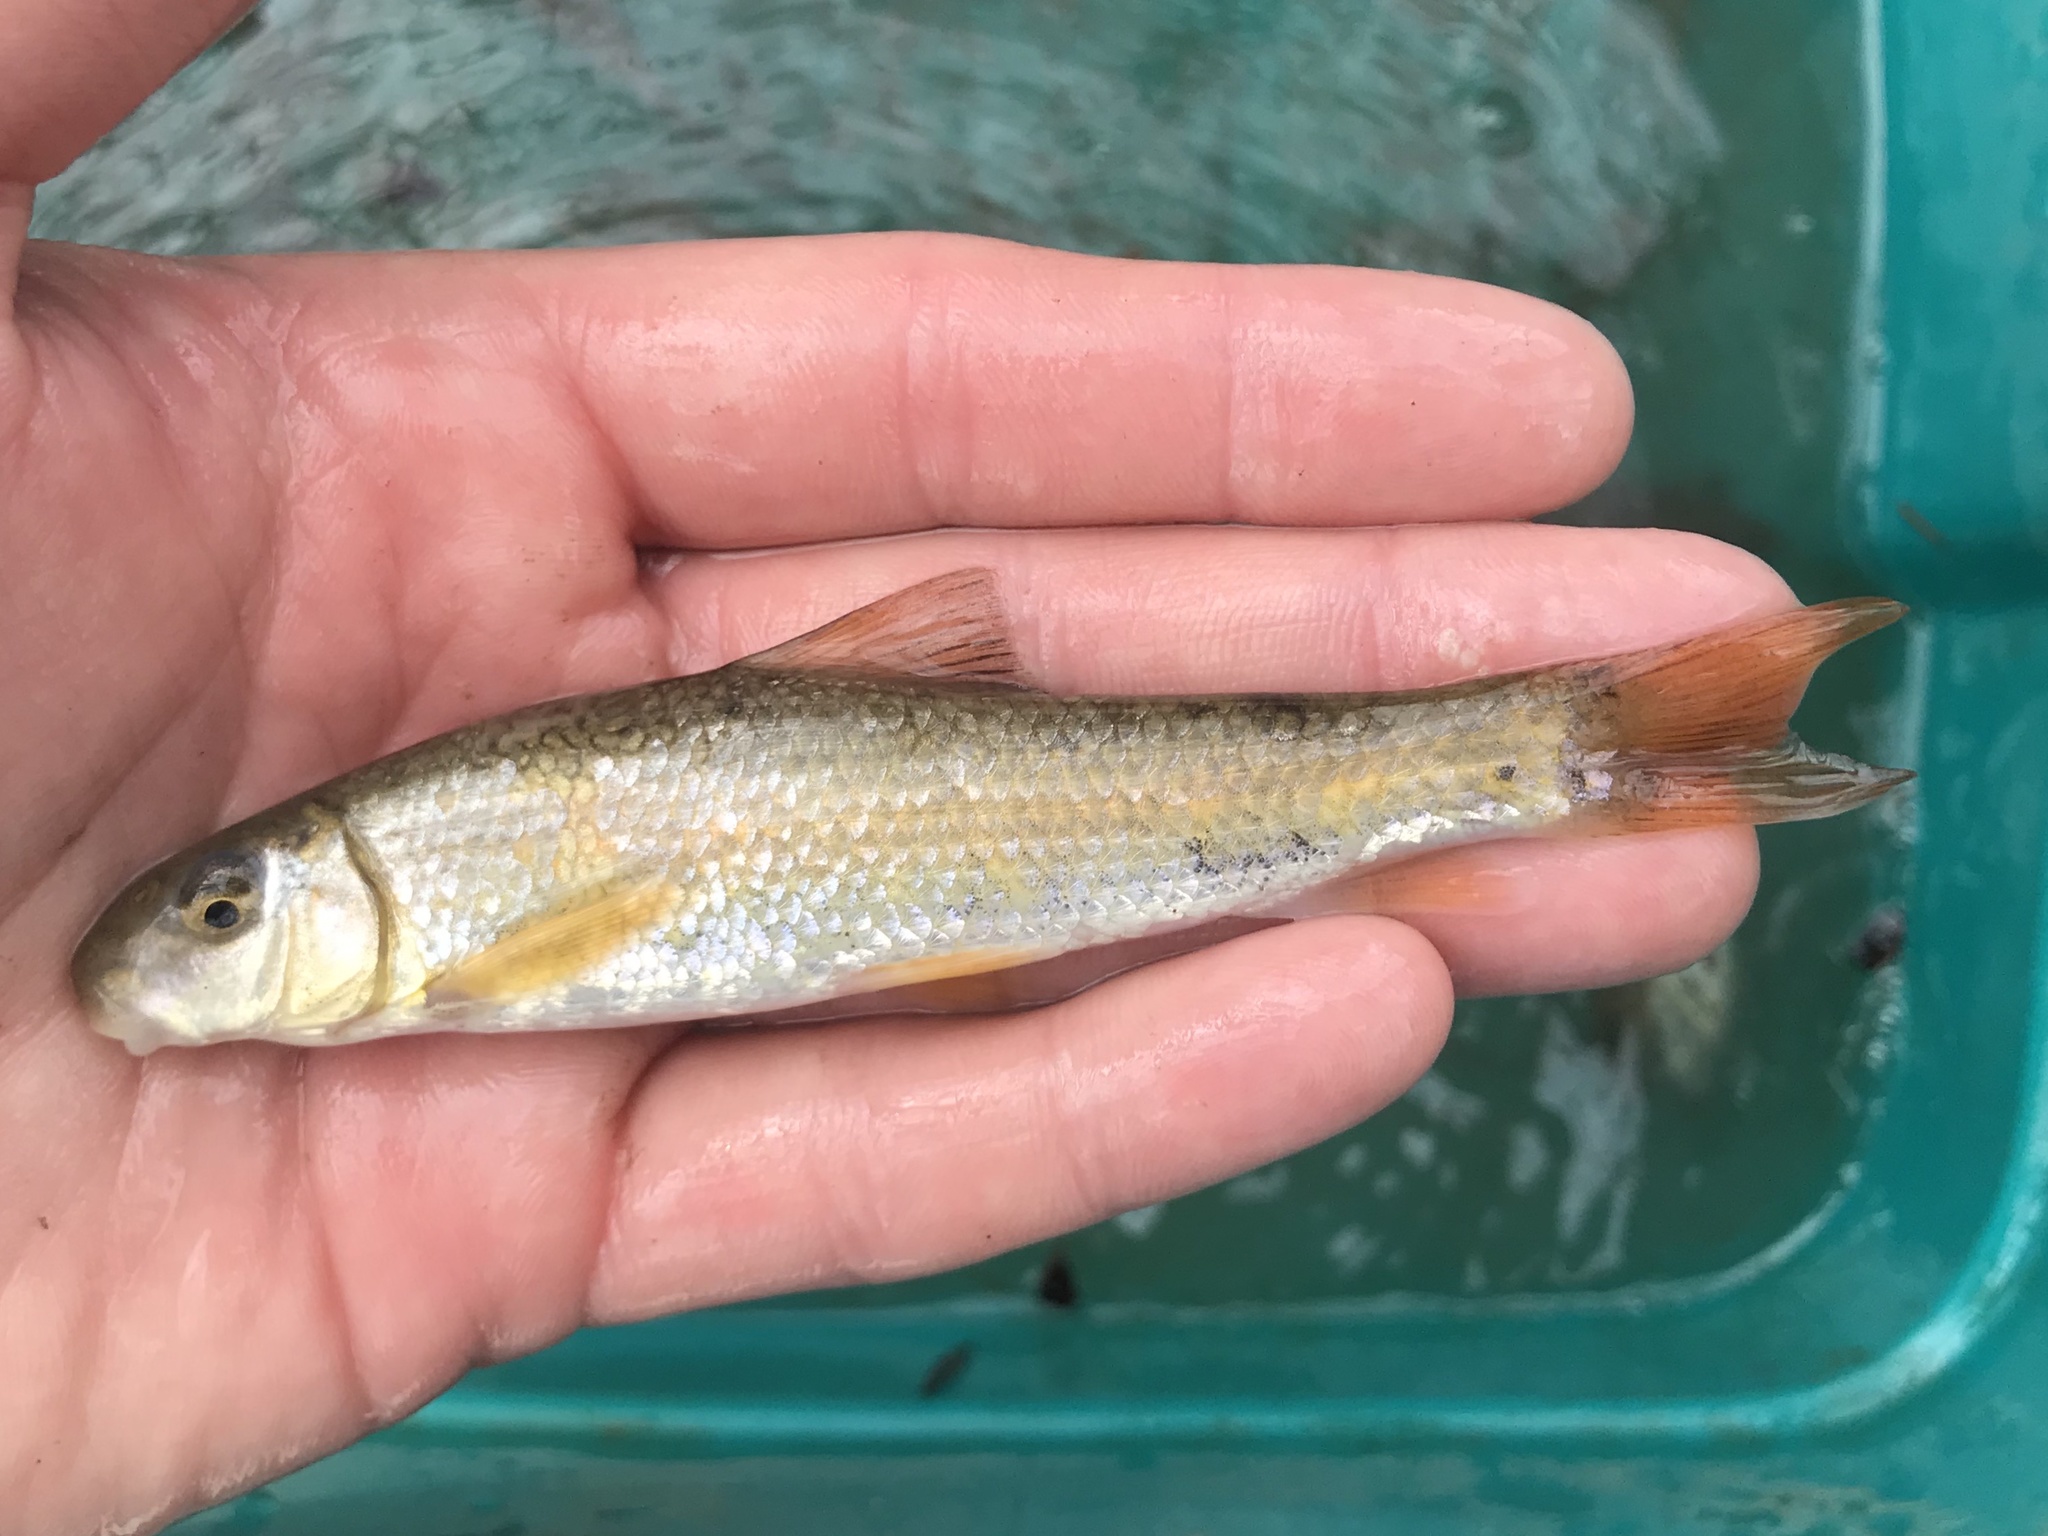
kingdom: Animalia
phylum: Chordata
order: Cypriniformes
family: Catostomidae
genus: Moxostoma
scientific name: Moxostoma congestum
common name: Gray redhorse
